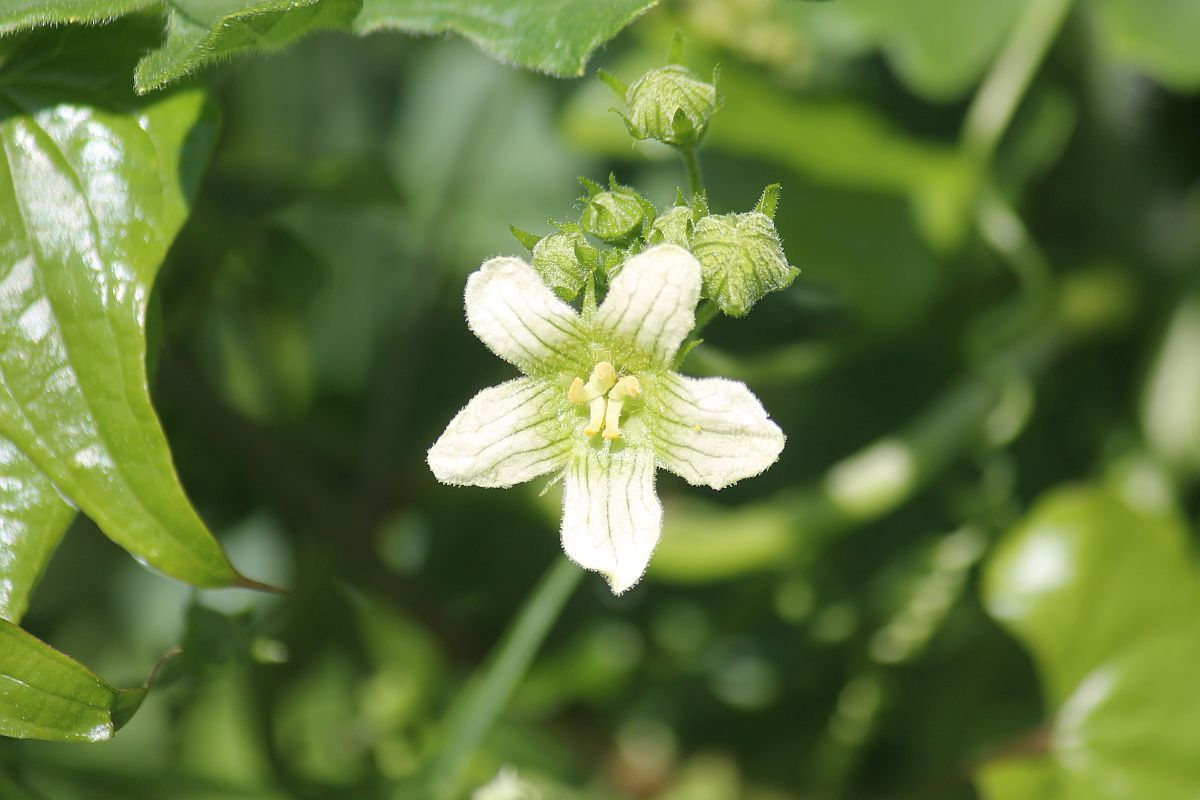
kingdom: Plantae
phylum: Tracheophyta
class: Magnoliopsida
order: Cucurbitales
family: Cucurbitaceae
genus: Bryonia
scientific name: Bryonia cretica
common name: Cretan bryony
